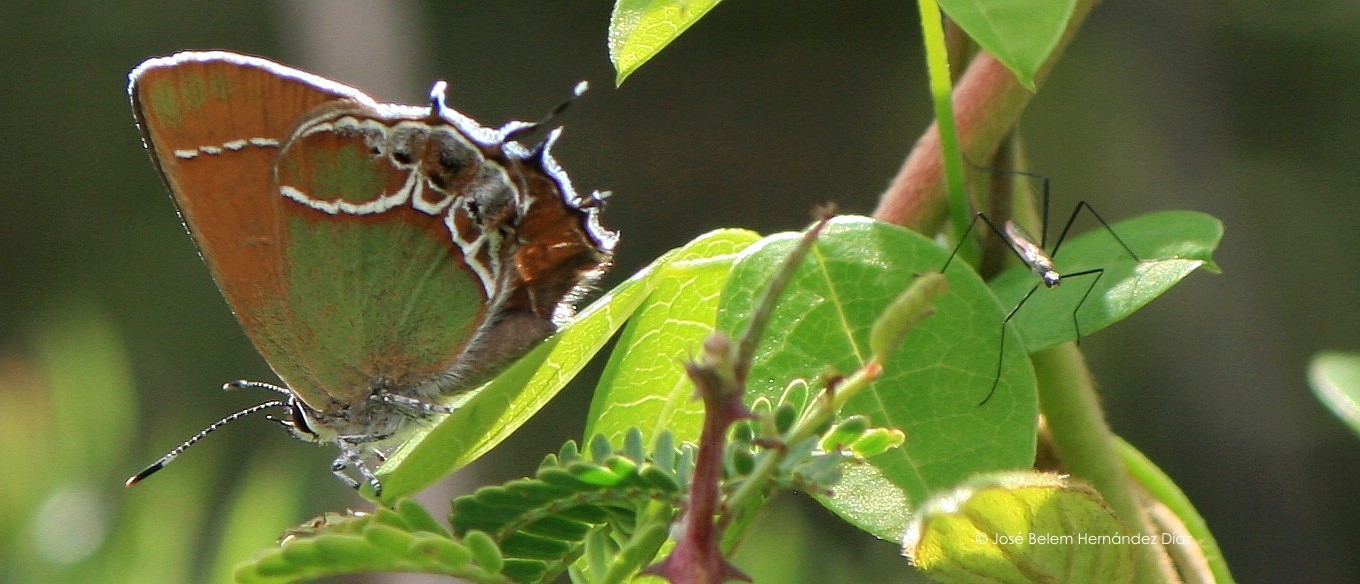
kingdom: Animalia
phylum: Arthropoda
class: Insecta
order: Lepidoptera
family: Lycaenidae
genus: Xamia
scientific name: Xamia xami
